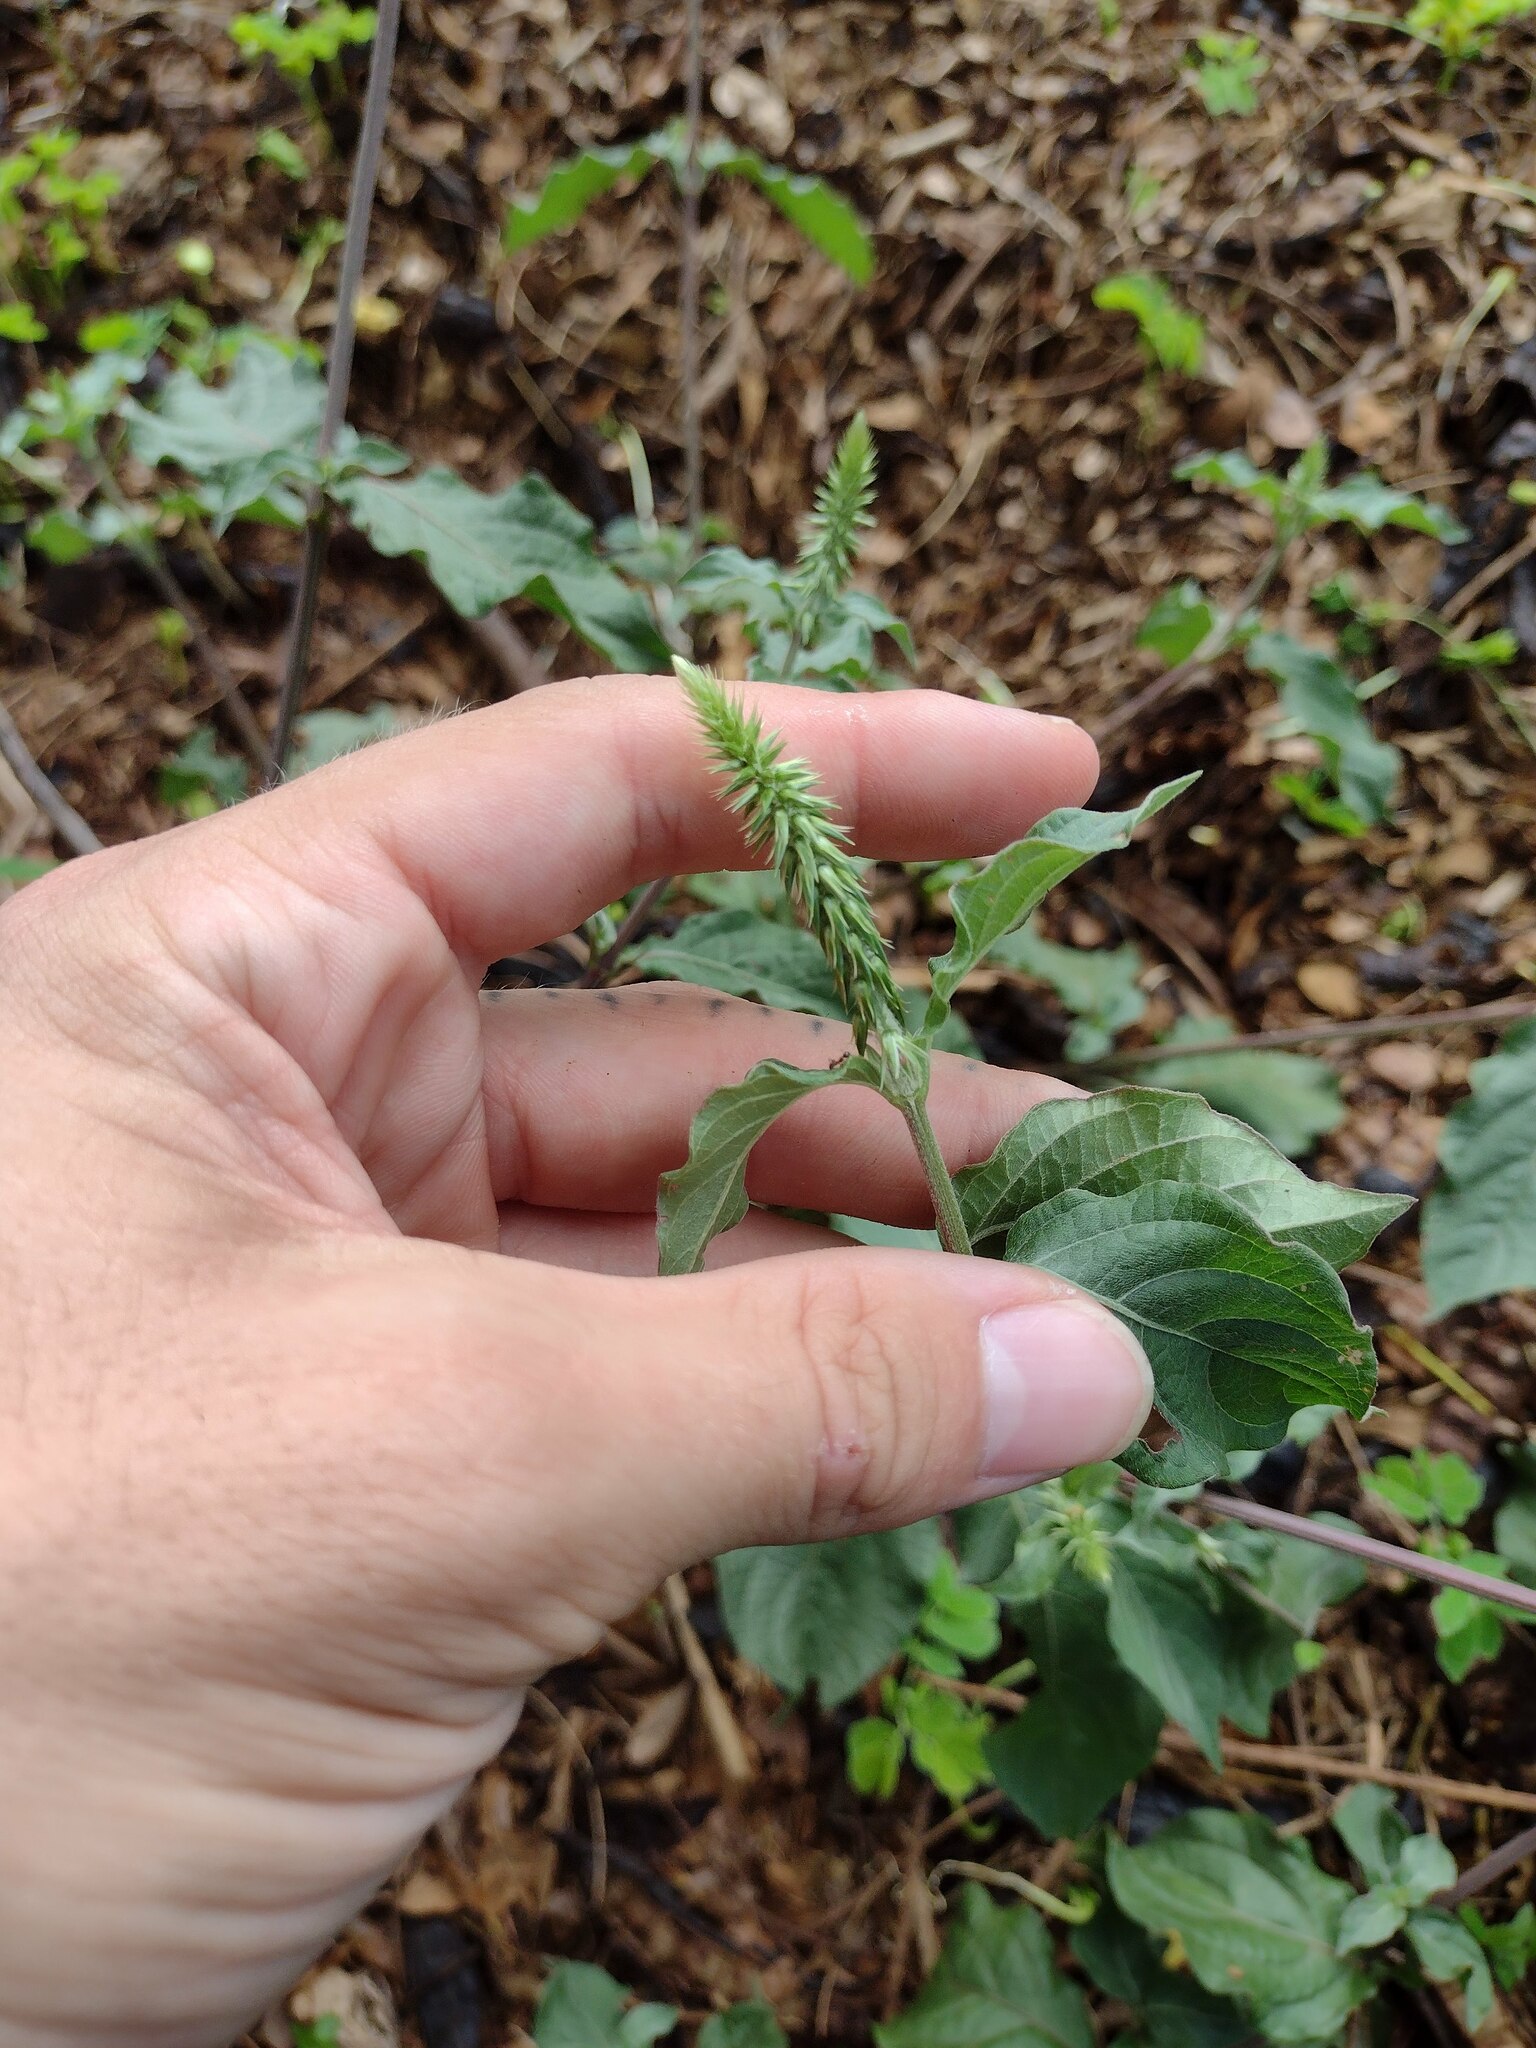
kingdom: Plantae
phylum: Tracheophyta
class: Magnoliopsida
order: Caryophyllales
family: Amaranthaceae
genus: Achyranthes
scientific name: Achyranthes aspera
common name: Devil's horsewhip
